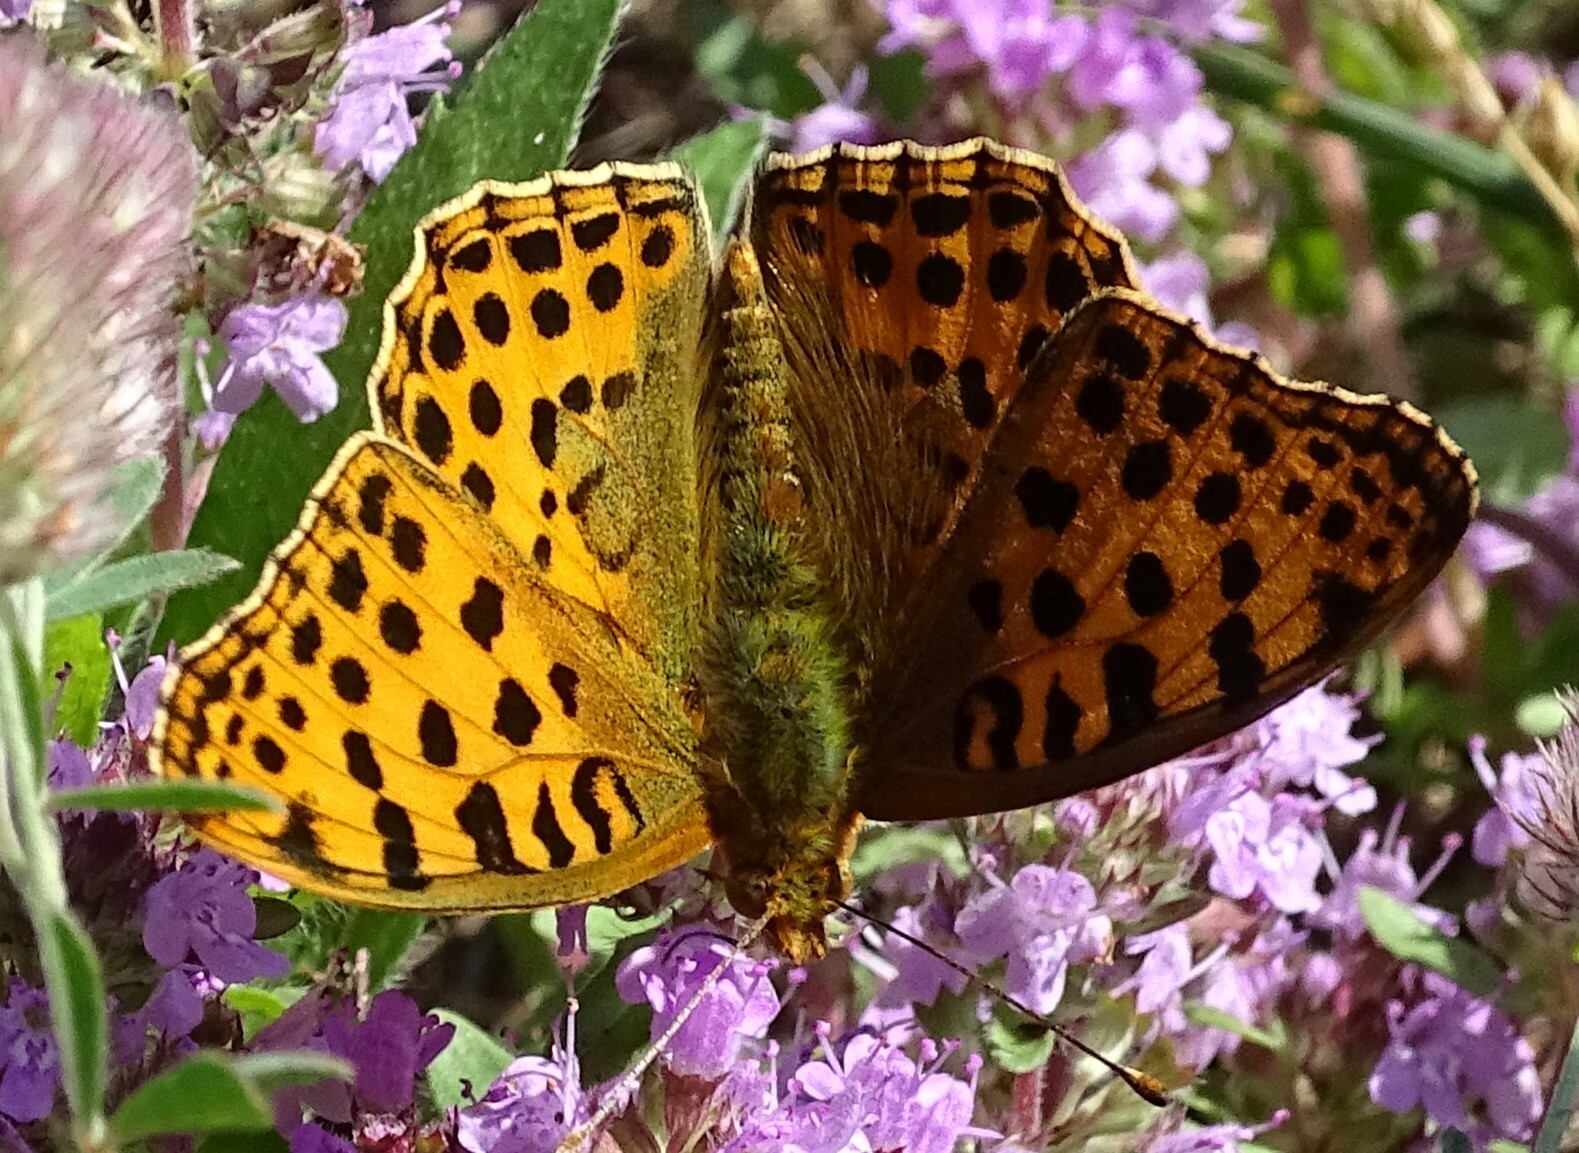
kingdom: Animalia
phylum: Arthropoda
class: Insecta
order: Lepidoptera
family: Nymphalidae
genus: Issoria
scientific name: Issoria lathonia
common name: Queen of spain fritillary
